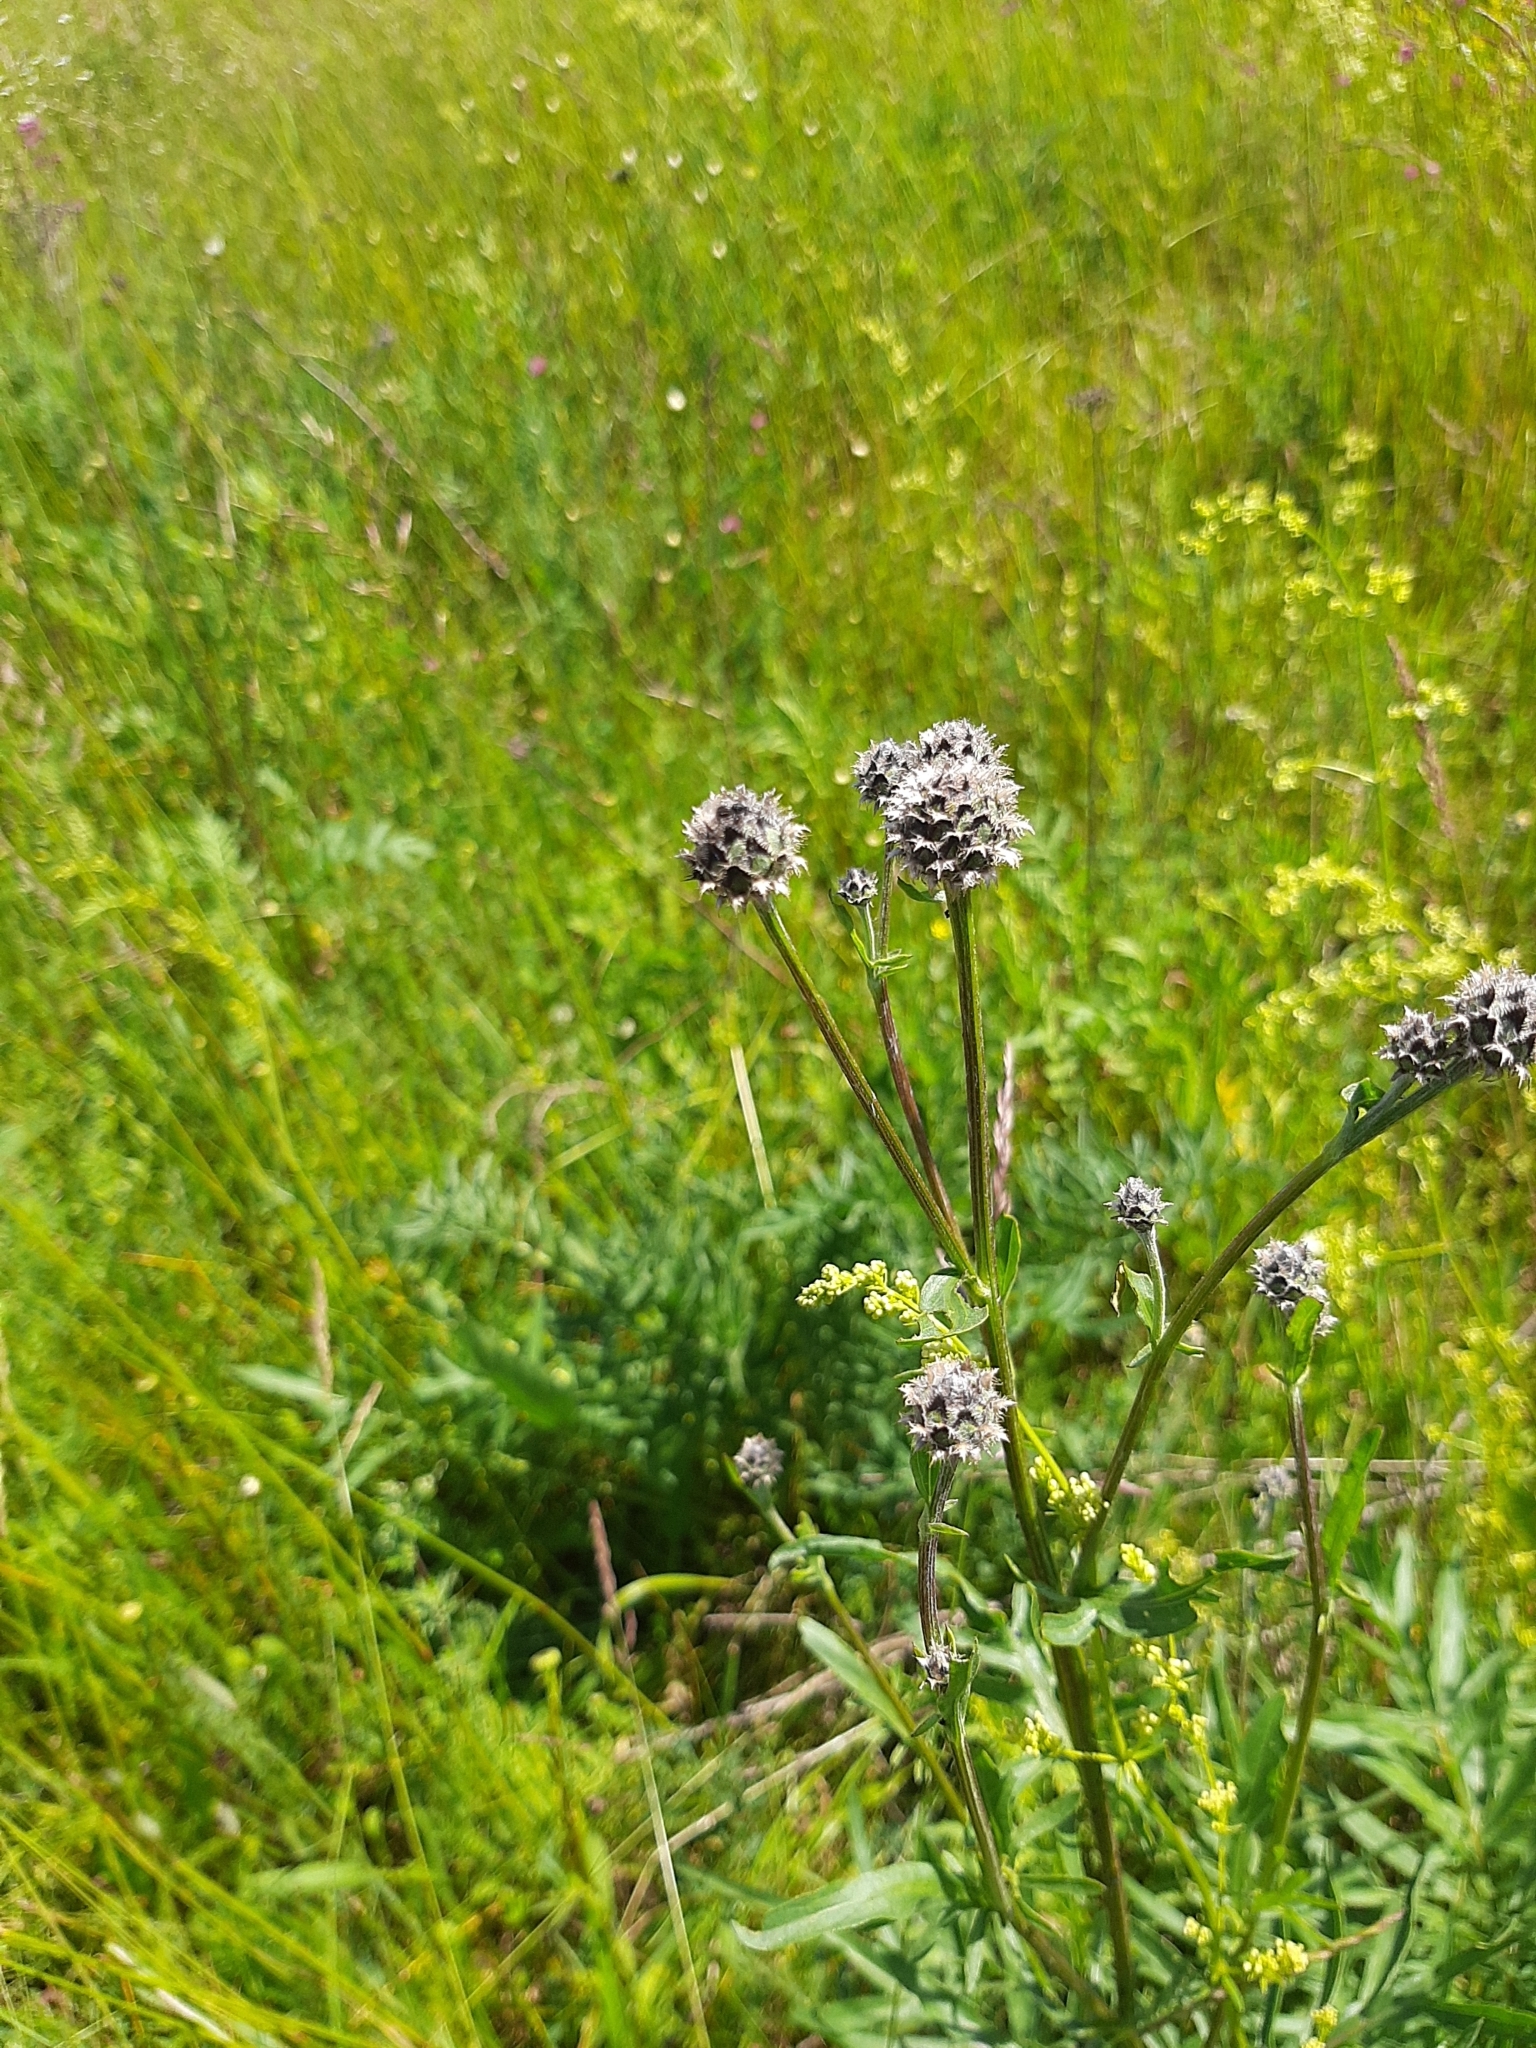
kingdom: Plantae
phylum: Tracheophyta
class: Magnoliopsida
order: Asterales
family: Asteraceae
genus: Centaurea
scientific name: Centaurea scabiosa
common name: Greater knapweed
